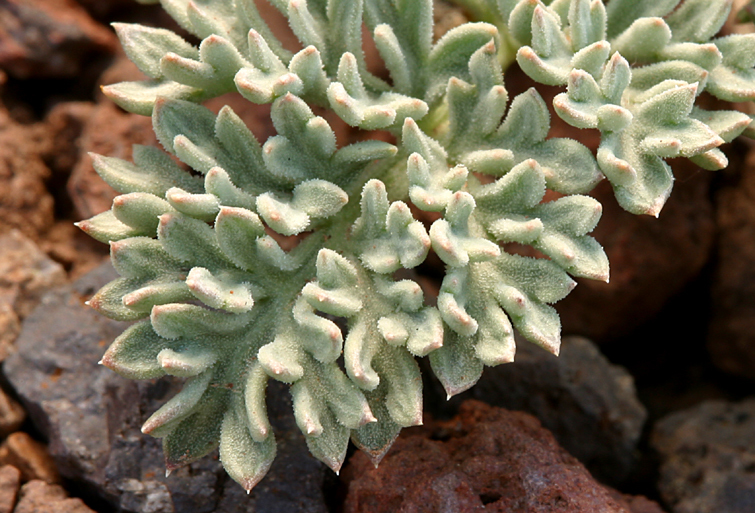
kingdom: Plantae
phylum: Tracheophyta
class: Magnoliopsida
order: Apiales
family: Apiaceae
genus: Aulospermum
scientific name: Aulospermum cinerarium
